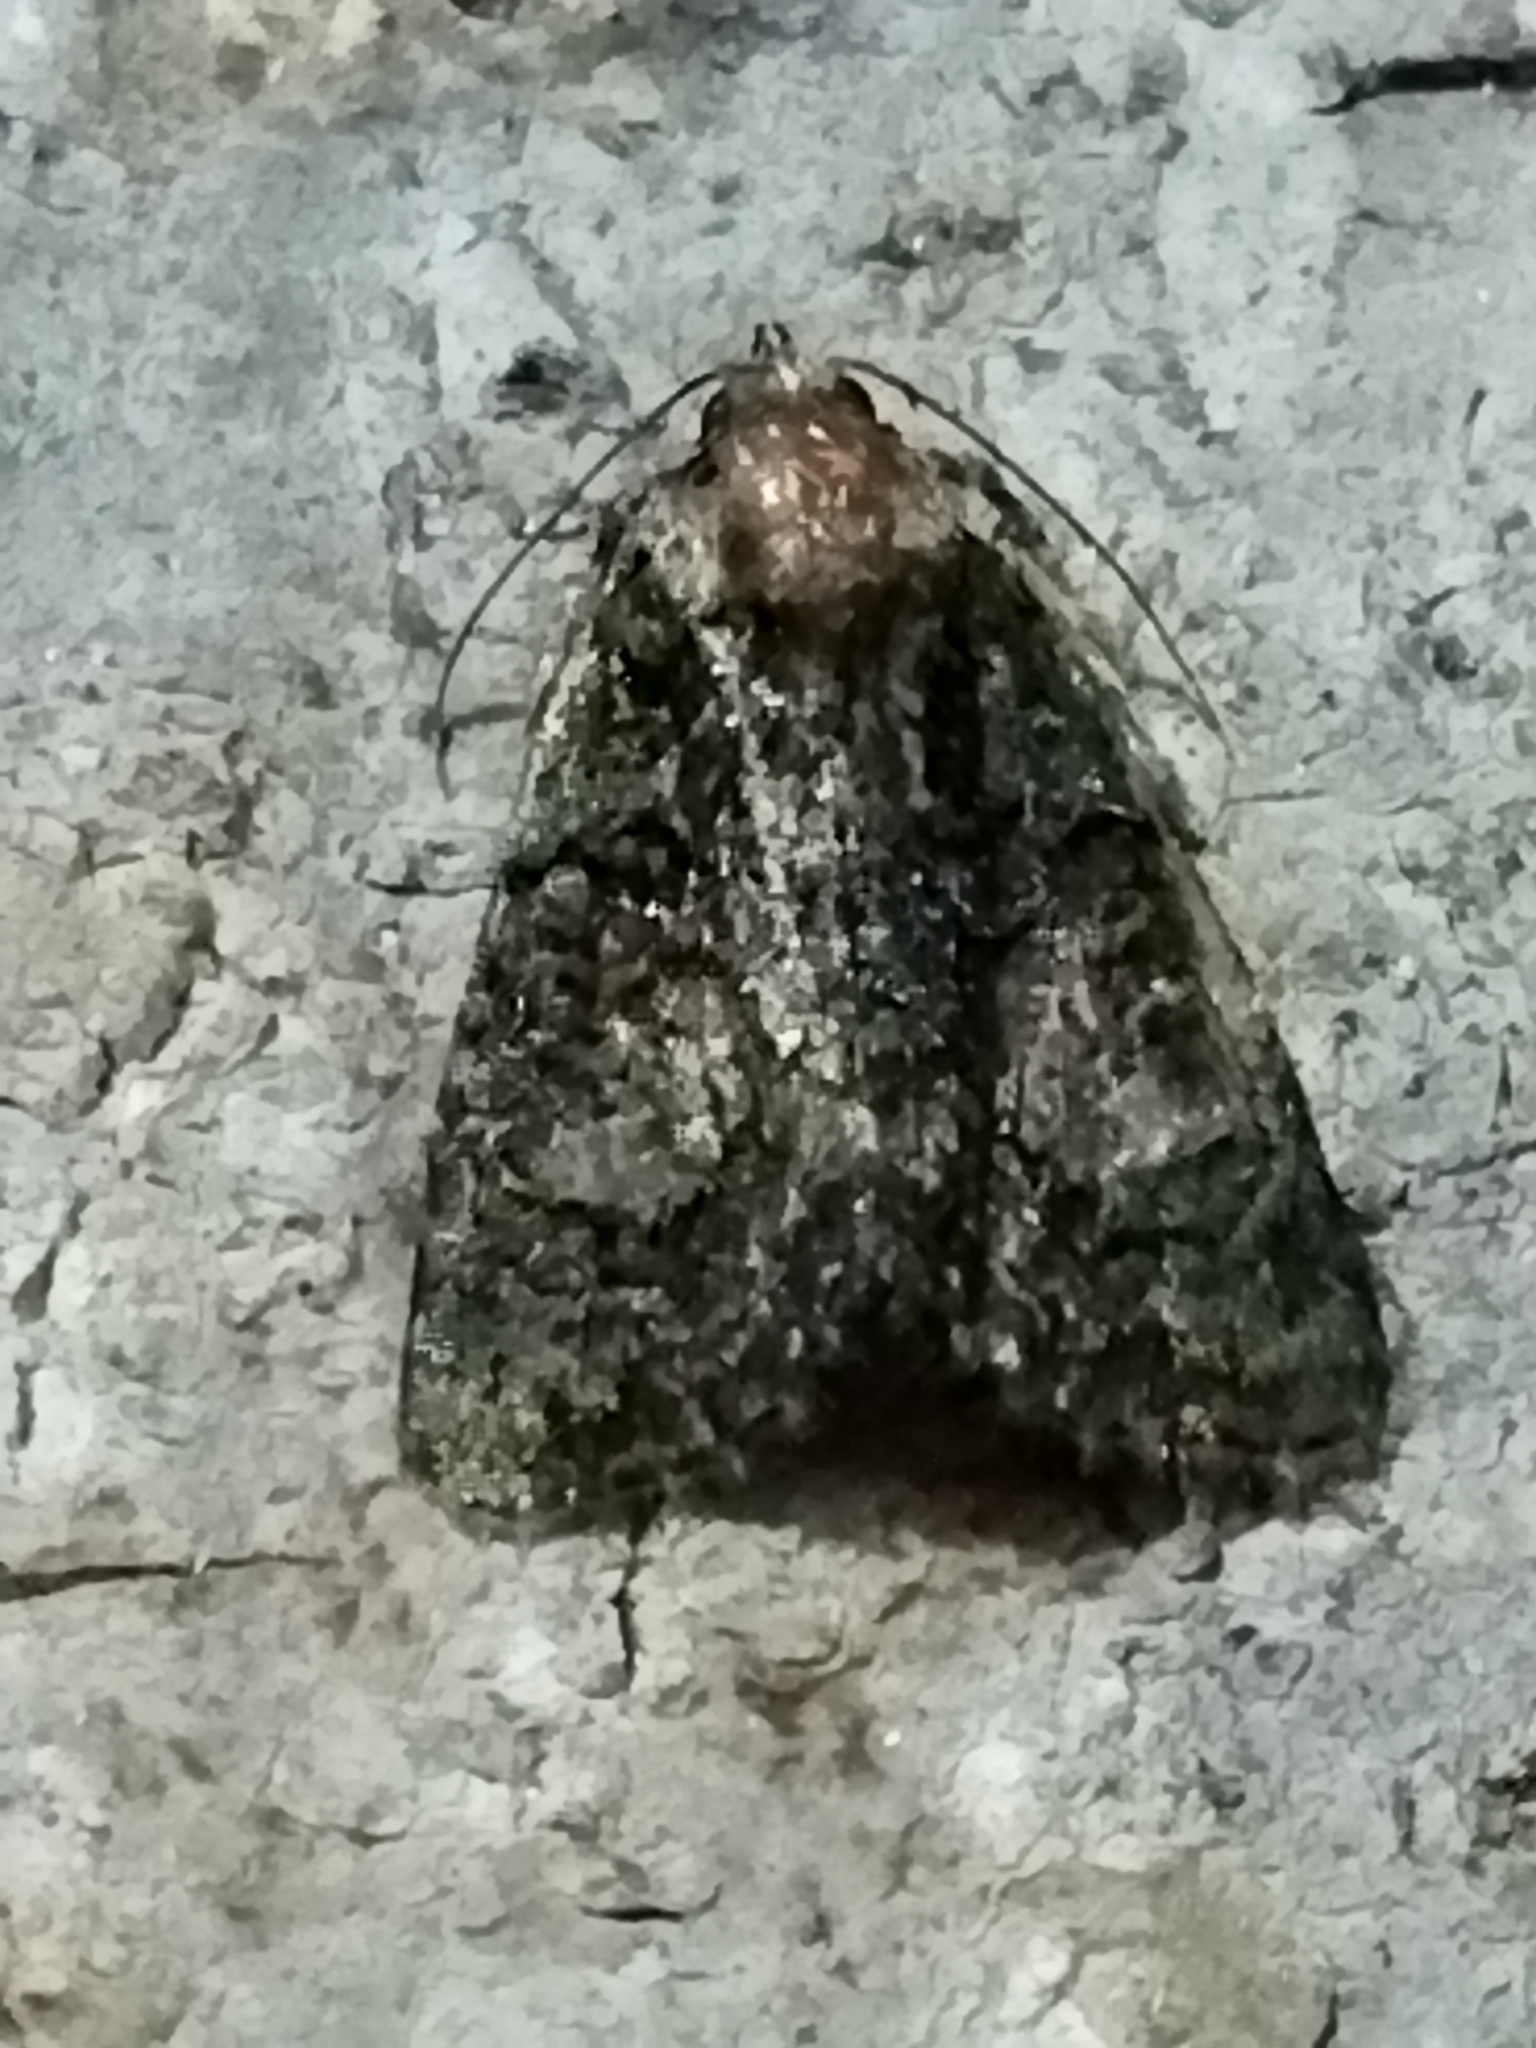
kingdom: Animalia
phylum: Arthropoda
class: Insecta
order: Lepidoptera
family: Noctuidae
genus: Cryphia
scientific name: Cryphia
